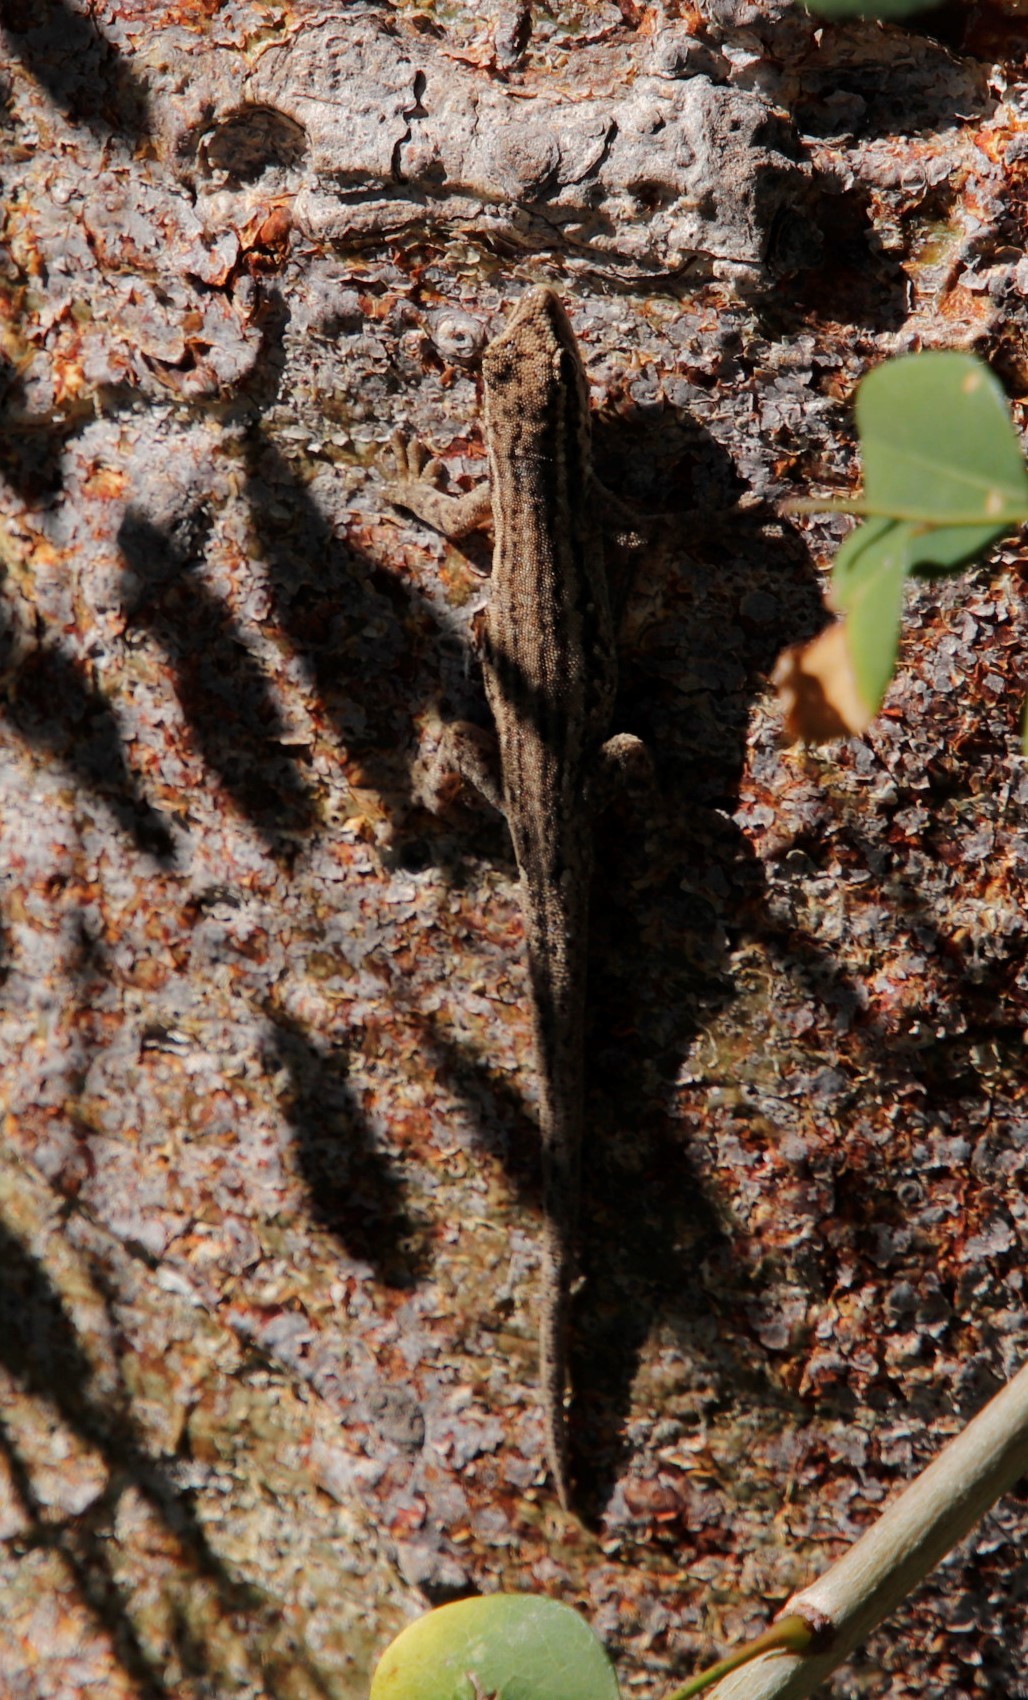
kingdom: Animalia
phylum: Chordata
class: Squamata
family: Gekkonidae
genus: Lygodactylus
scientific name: Lygodactylus capensis
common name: Cape dwarf gecko
